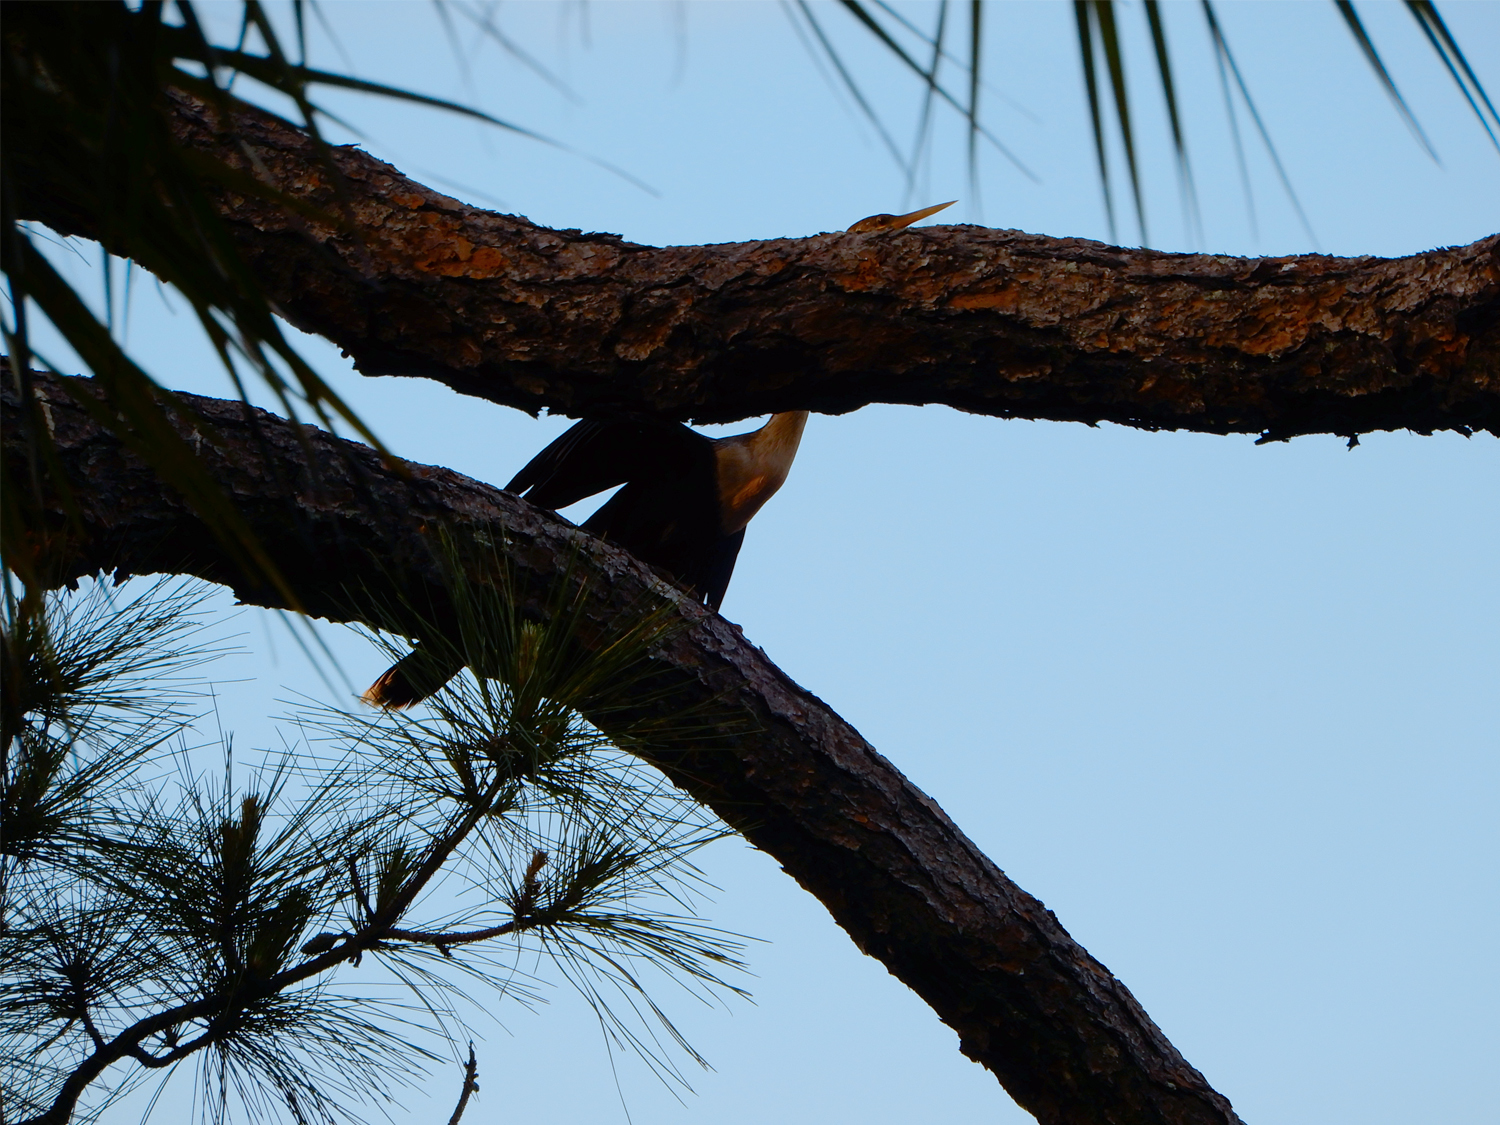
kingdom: Animalia
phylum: Chordata
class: Aves
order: Suliformes
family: Anhingidae
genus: Anhinga
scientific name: Anhinga anhinga
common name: Anhinga
